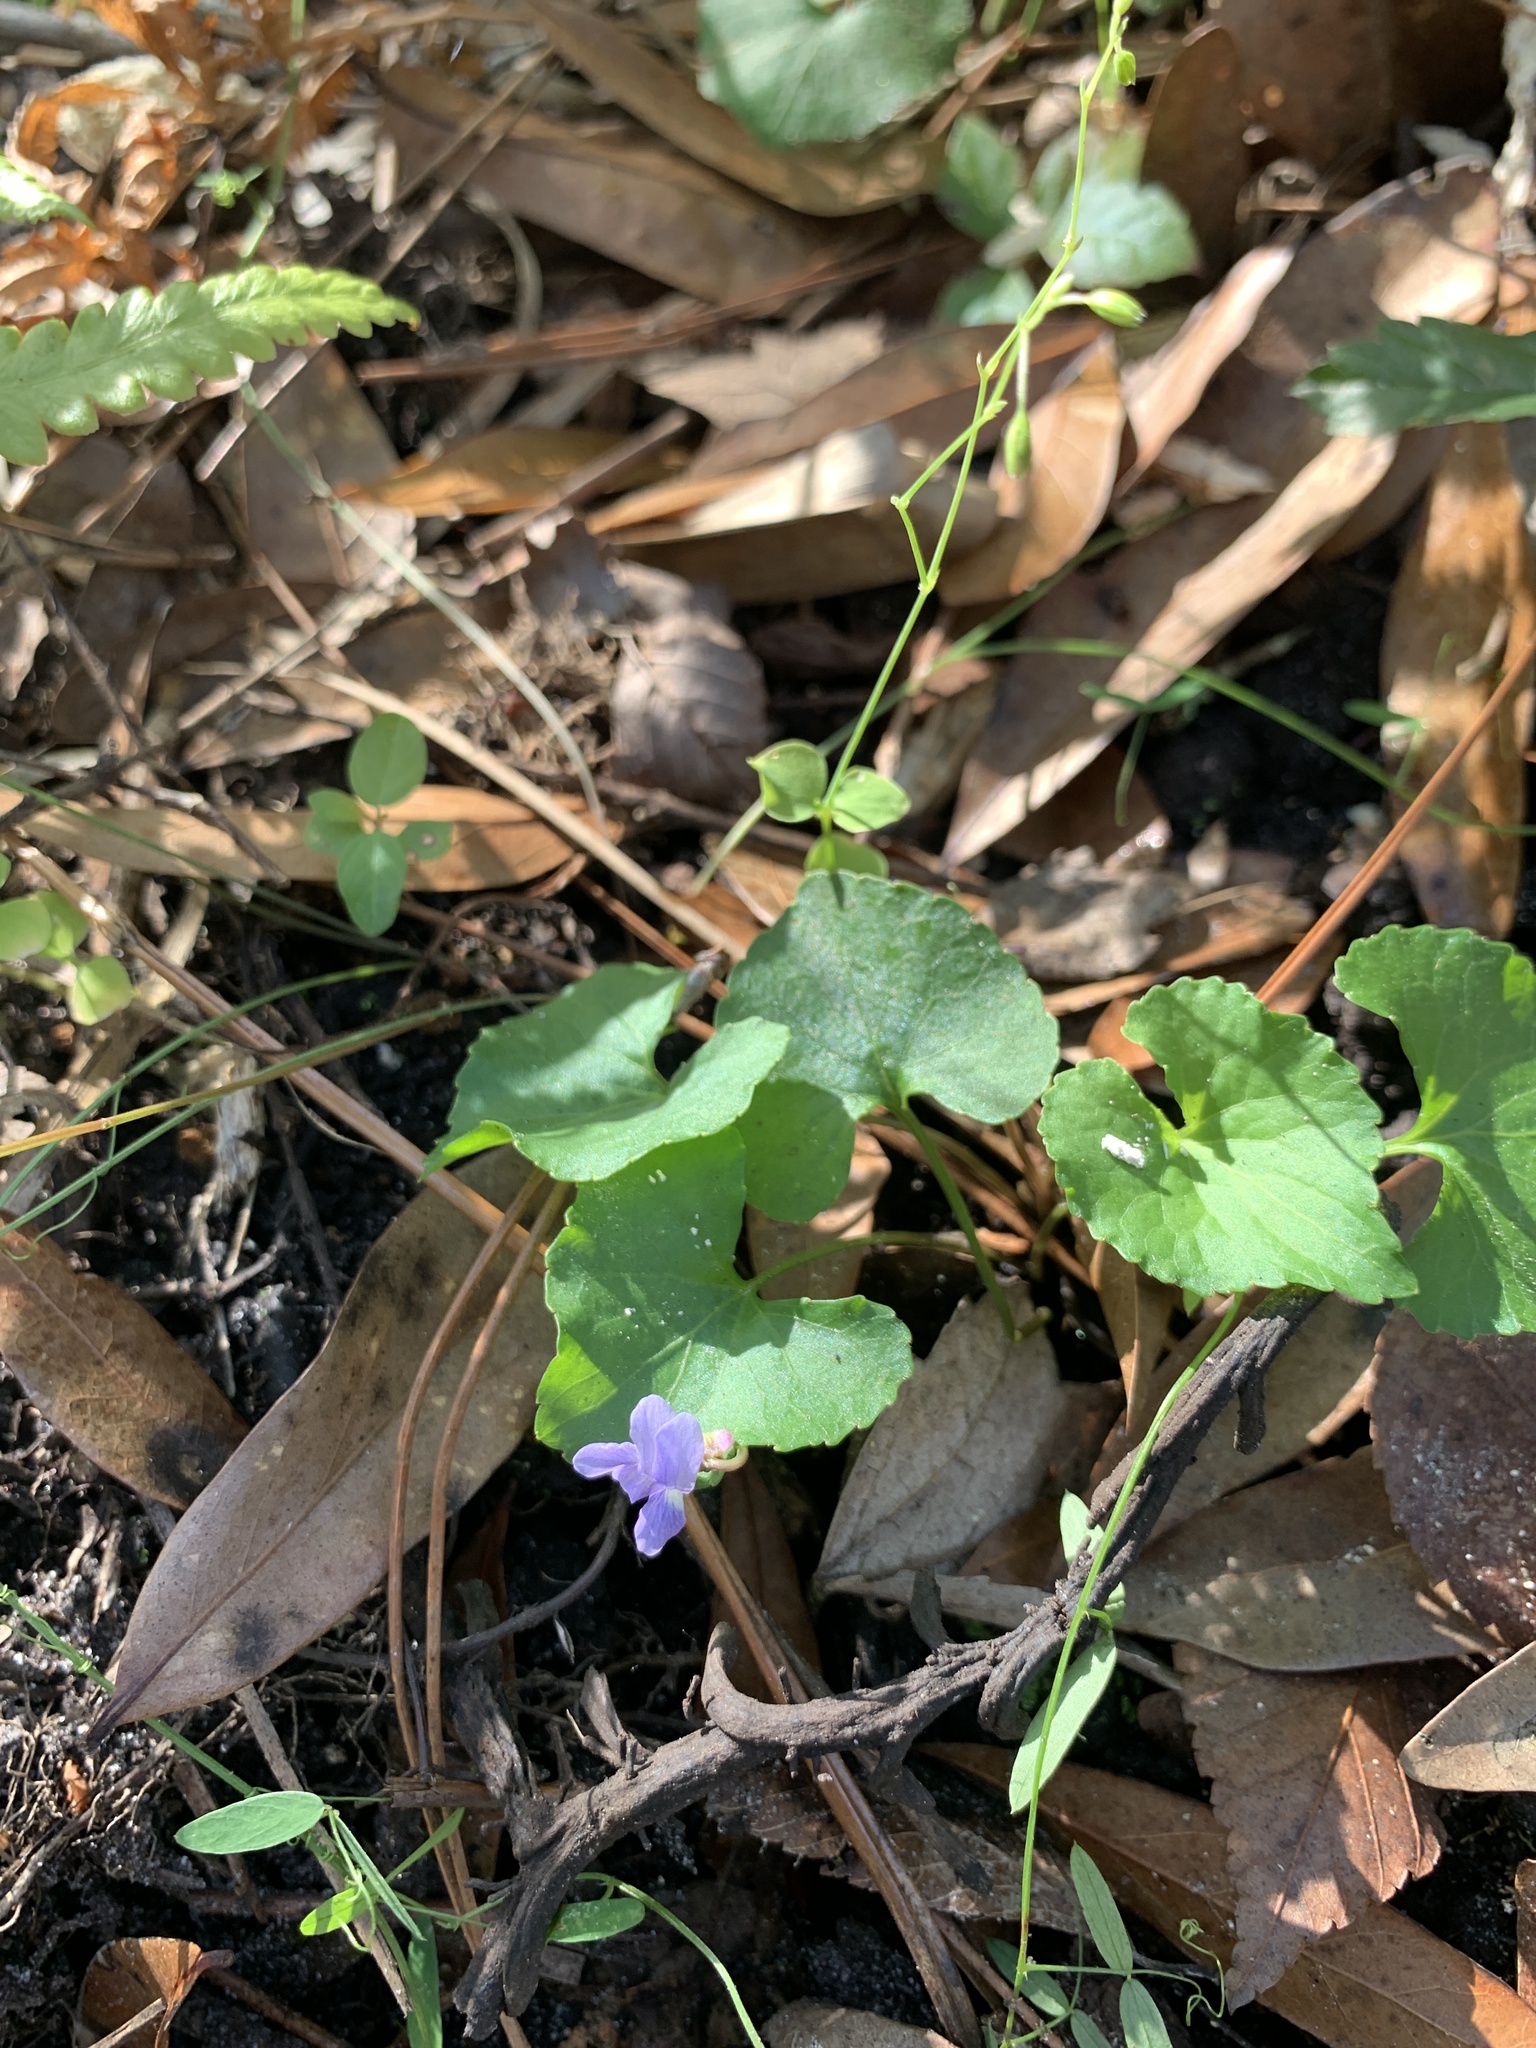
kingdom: Plantae
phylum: Tracheophyta
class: Magnoliopsida
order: Malpighiales
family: Violaceae
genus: Viola
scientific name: Viola sororia
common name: Dooryard violet
